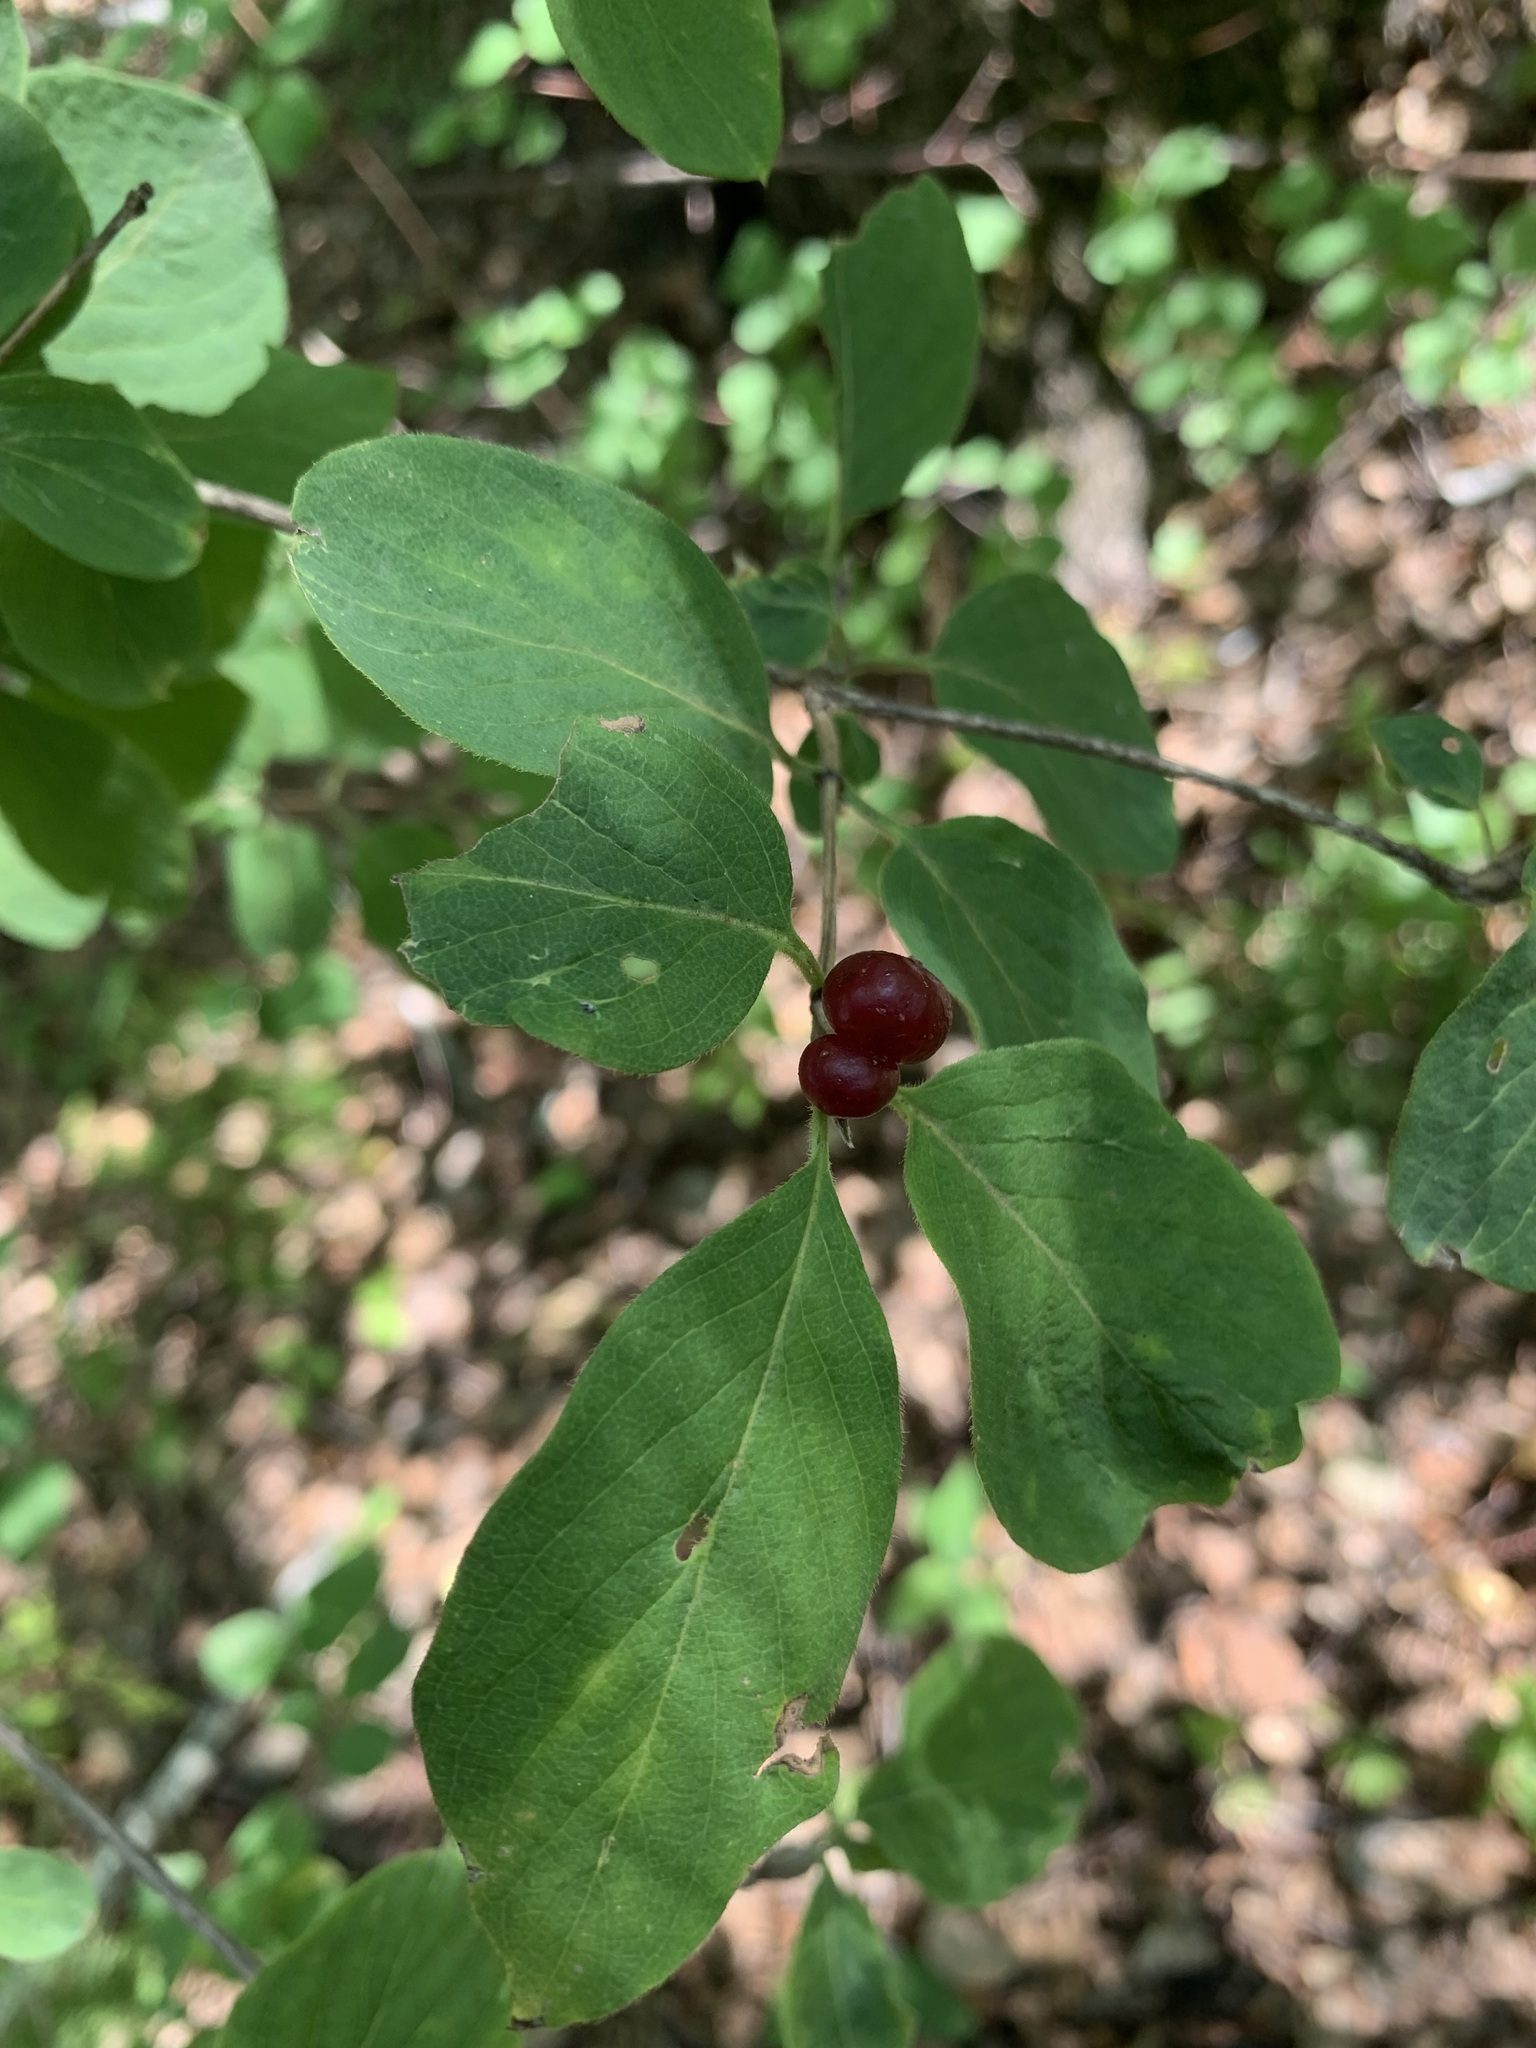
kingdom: Plantae
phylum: Tracheophyta
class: Magnoliopsida
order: Dipsacales
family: Caprifoliaceae
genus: Lonicera
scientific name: Lonicera xylosteum
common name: Fly honeysuckle
